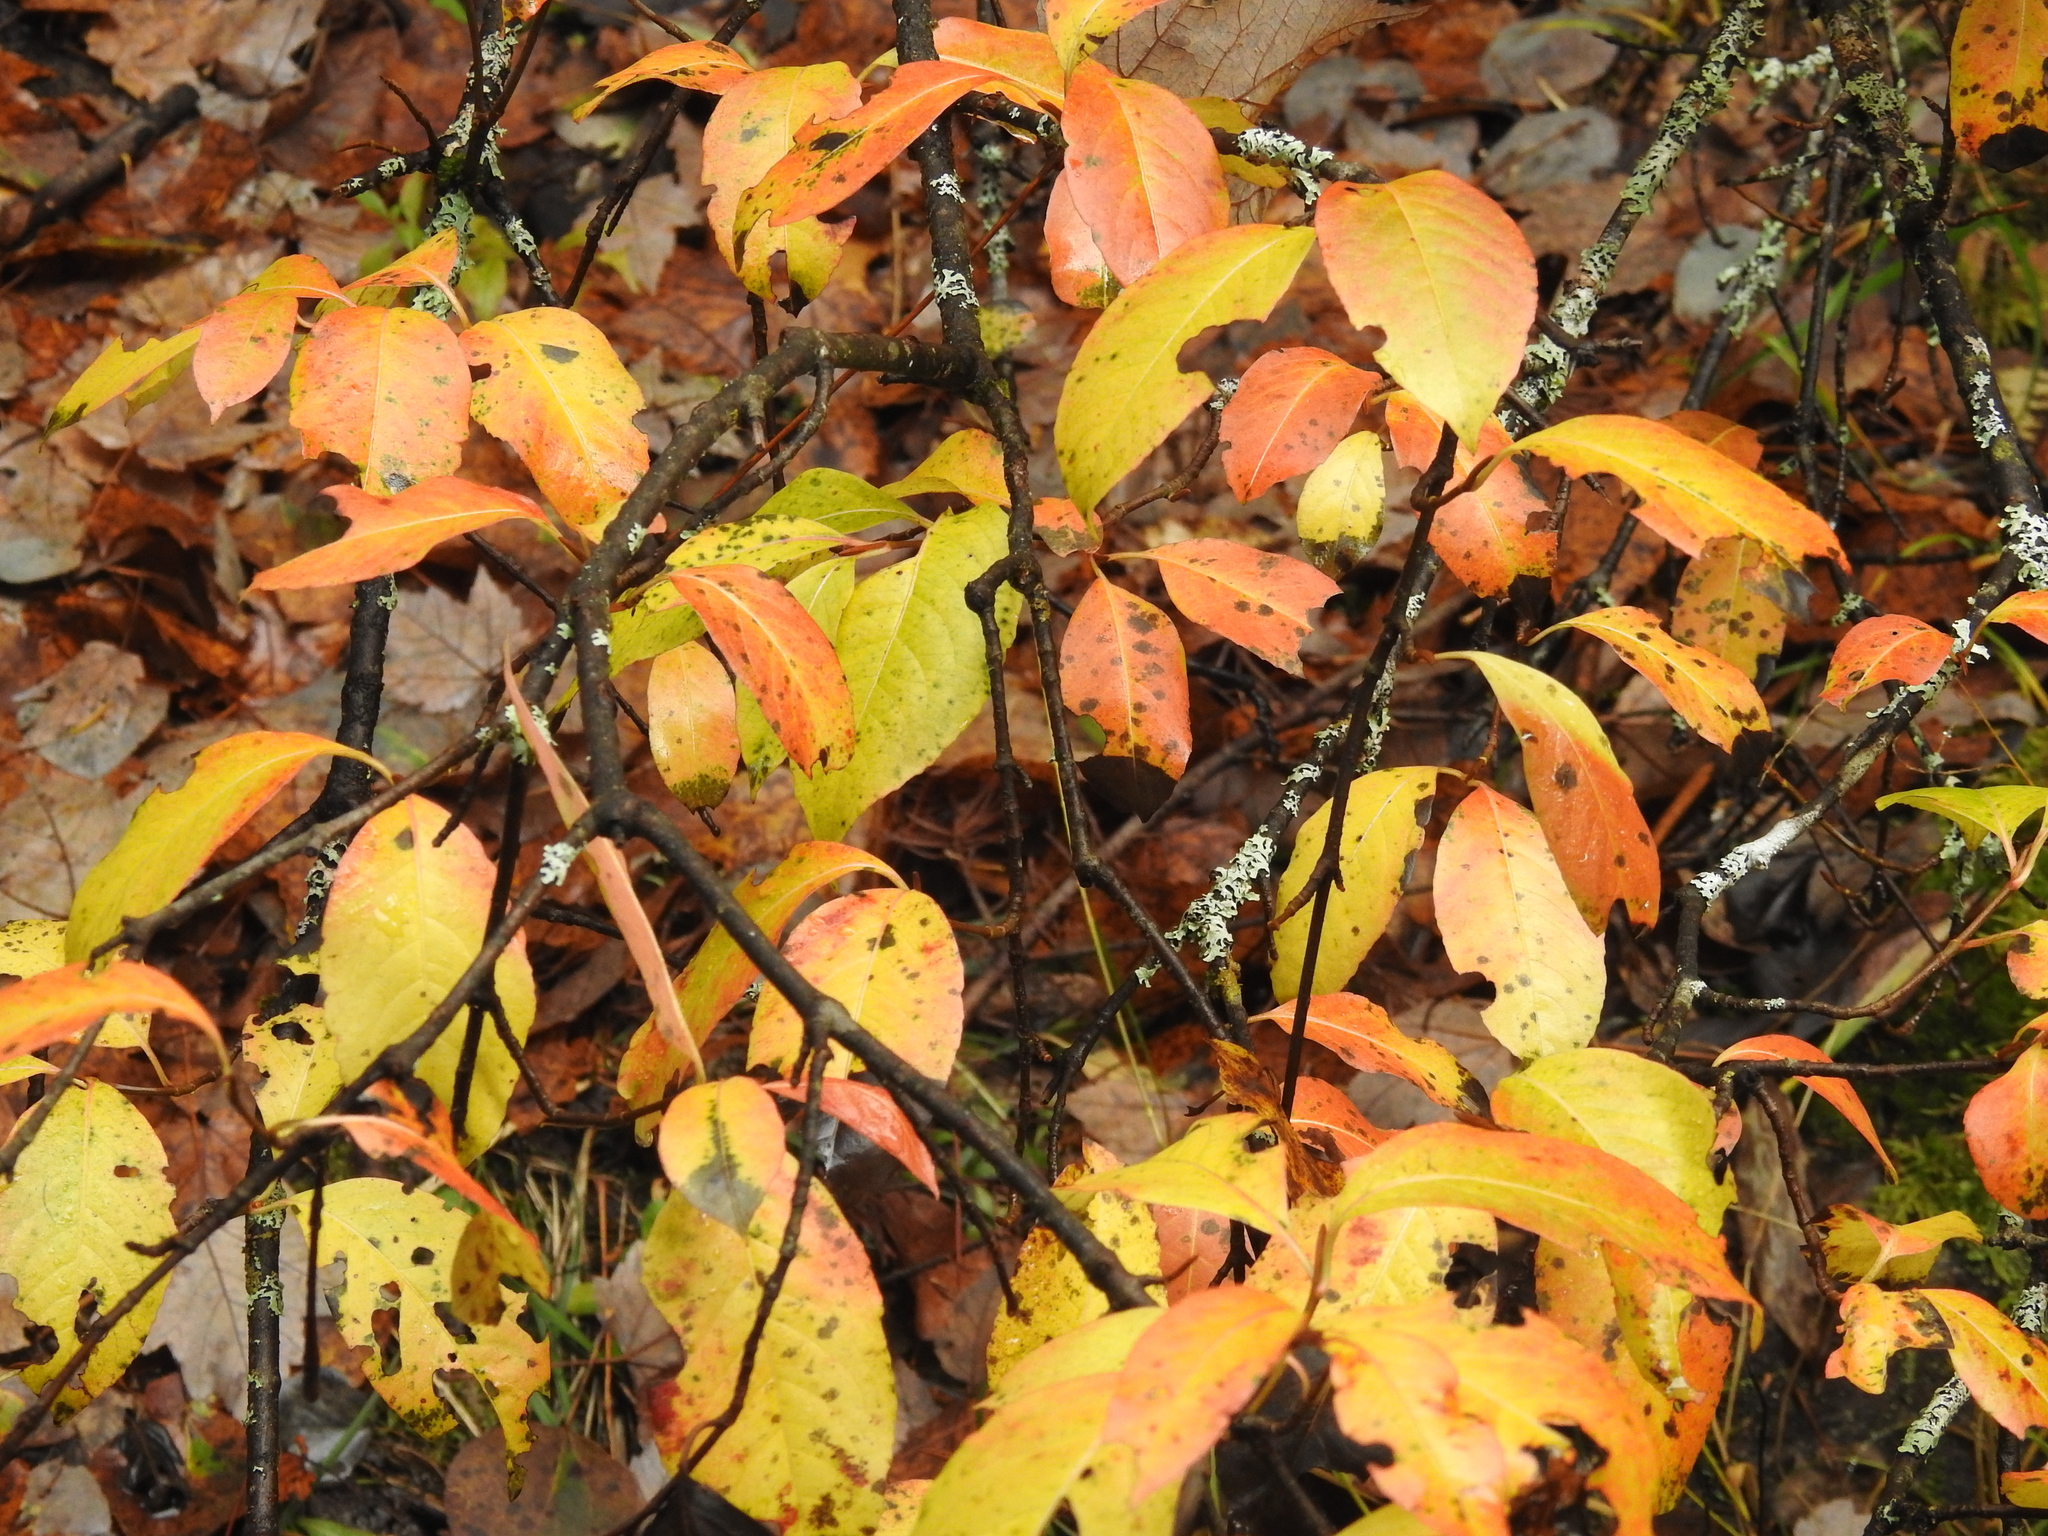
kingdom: Plantae
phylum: Tracheophyta
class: Magnoliopsida
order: Dipsacales
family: Viburnaceae
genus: Viburnum
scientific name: Viburnum cassinoides
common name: Swamp haw
